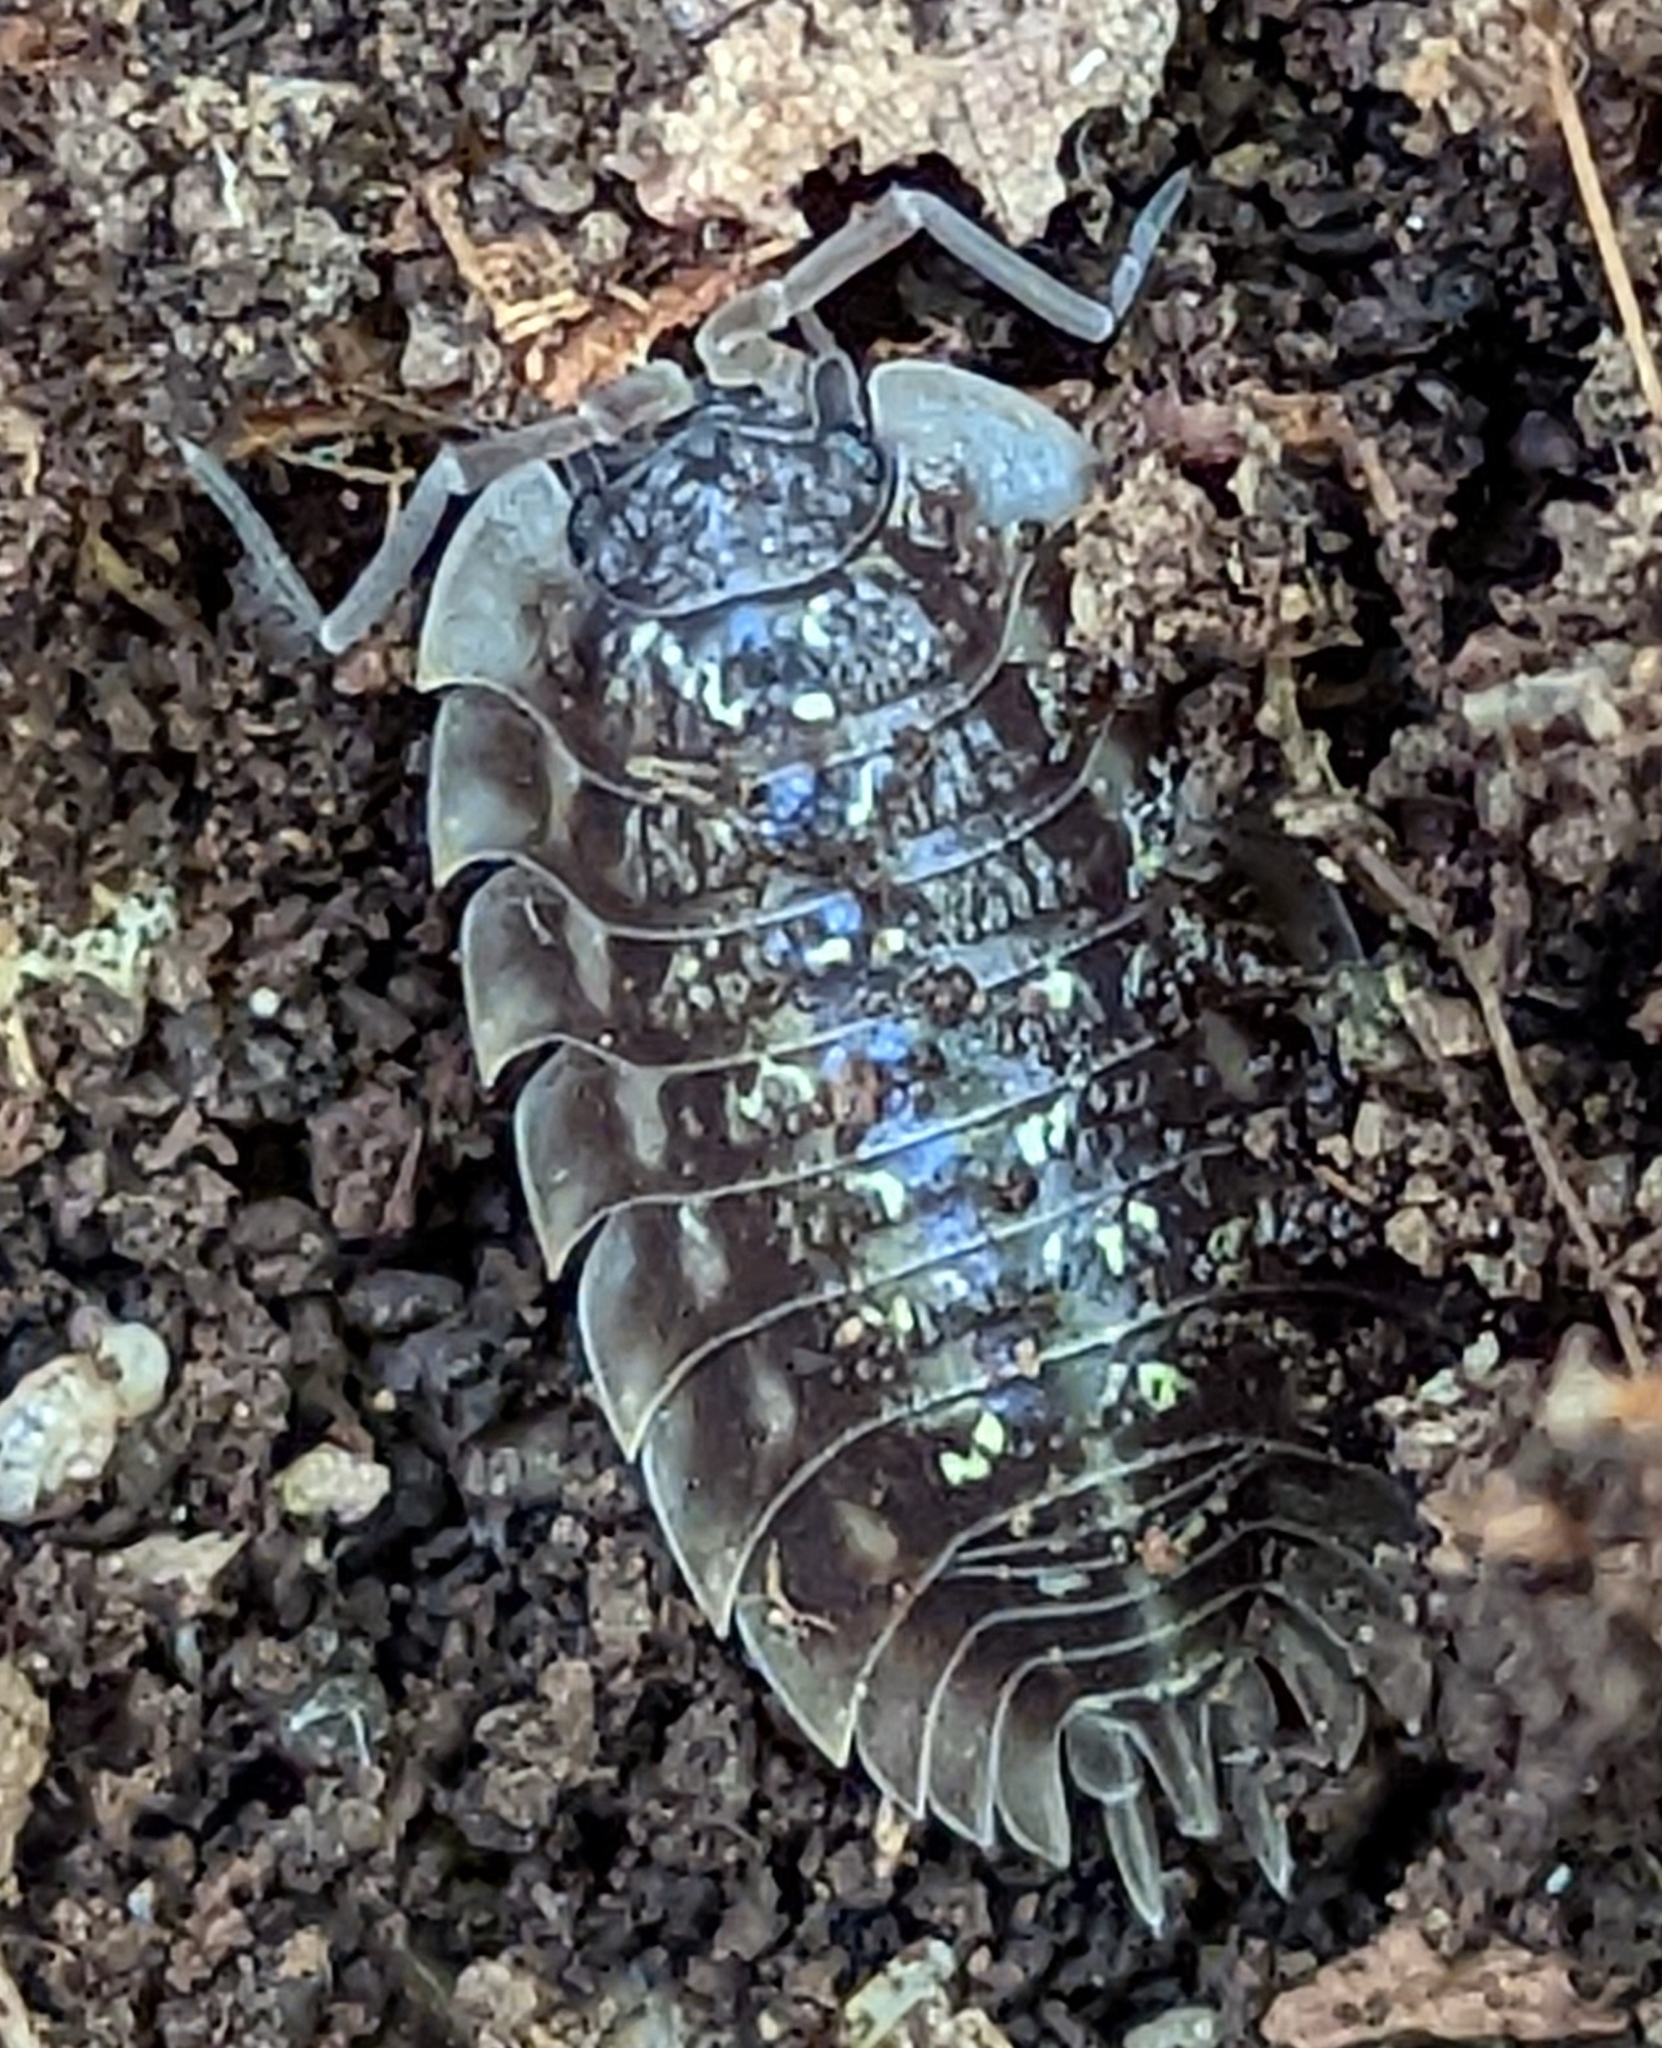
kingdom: Animalia
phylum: Arthropoda
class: Malacostraca
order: Isopoda
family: Oniscidae
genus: Oniscus
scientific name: Oniscus asellus
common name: Common shiny woodlouse
